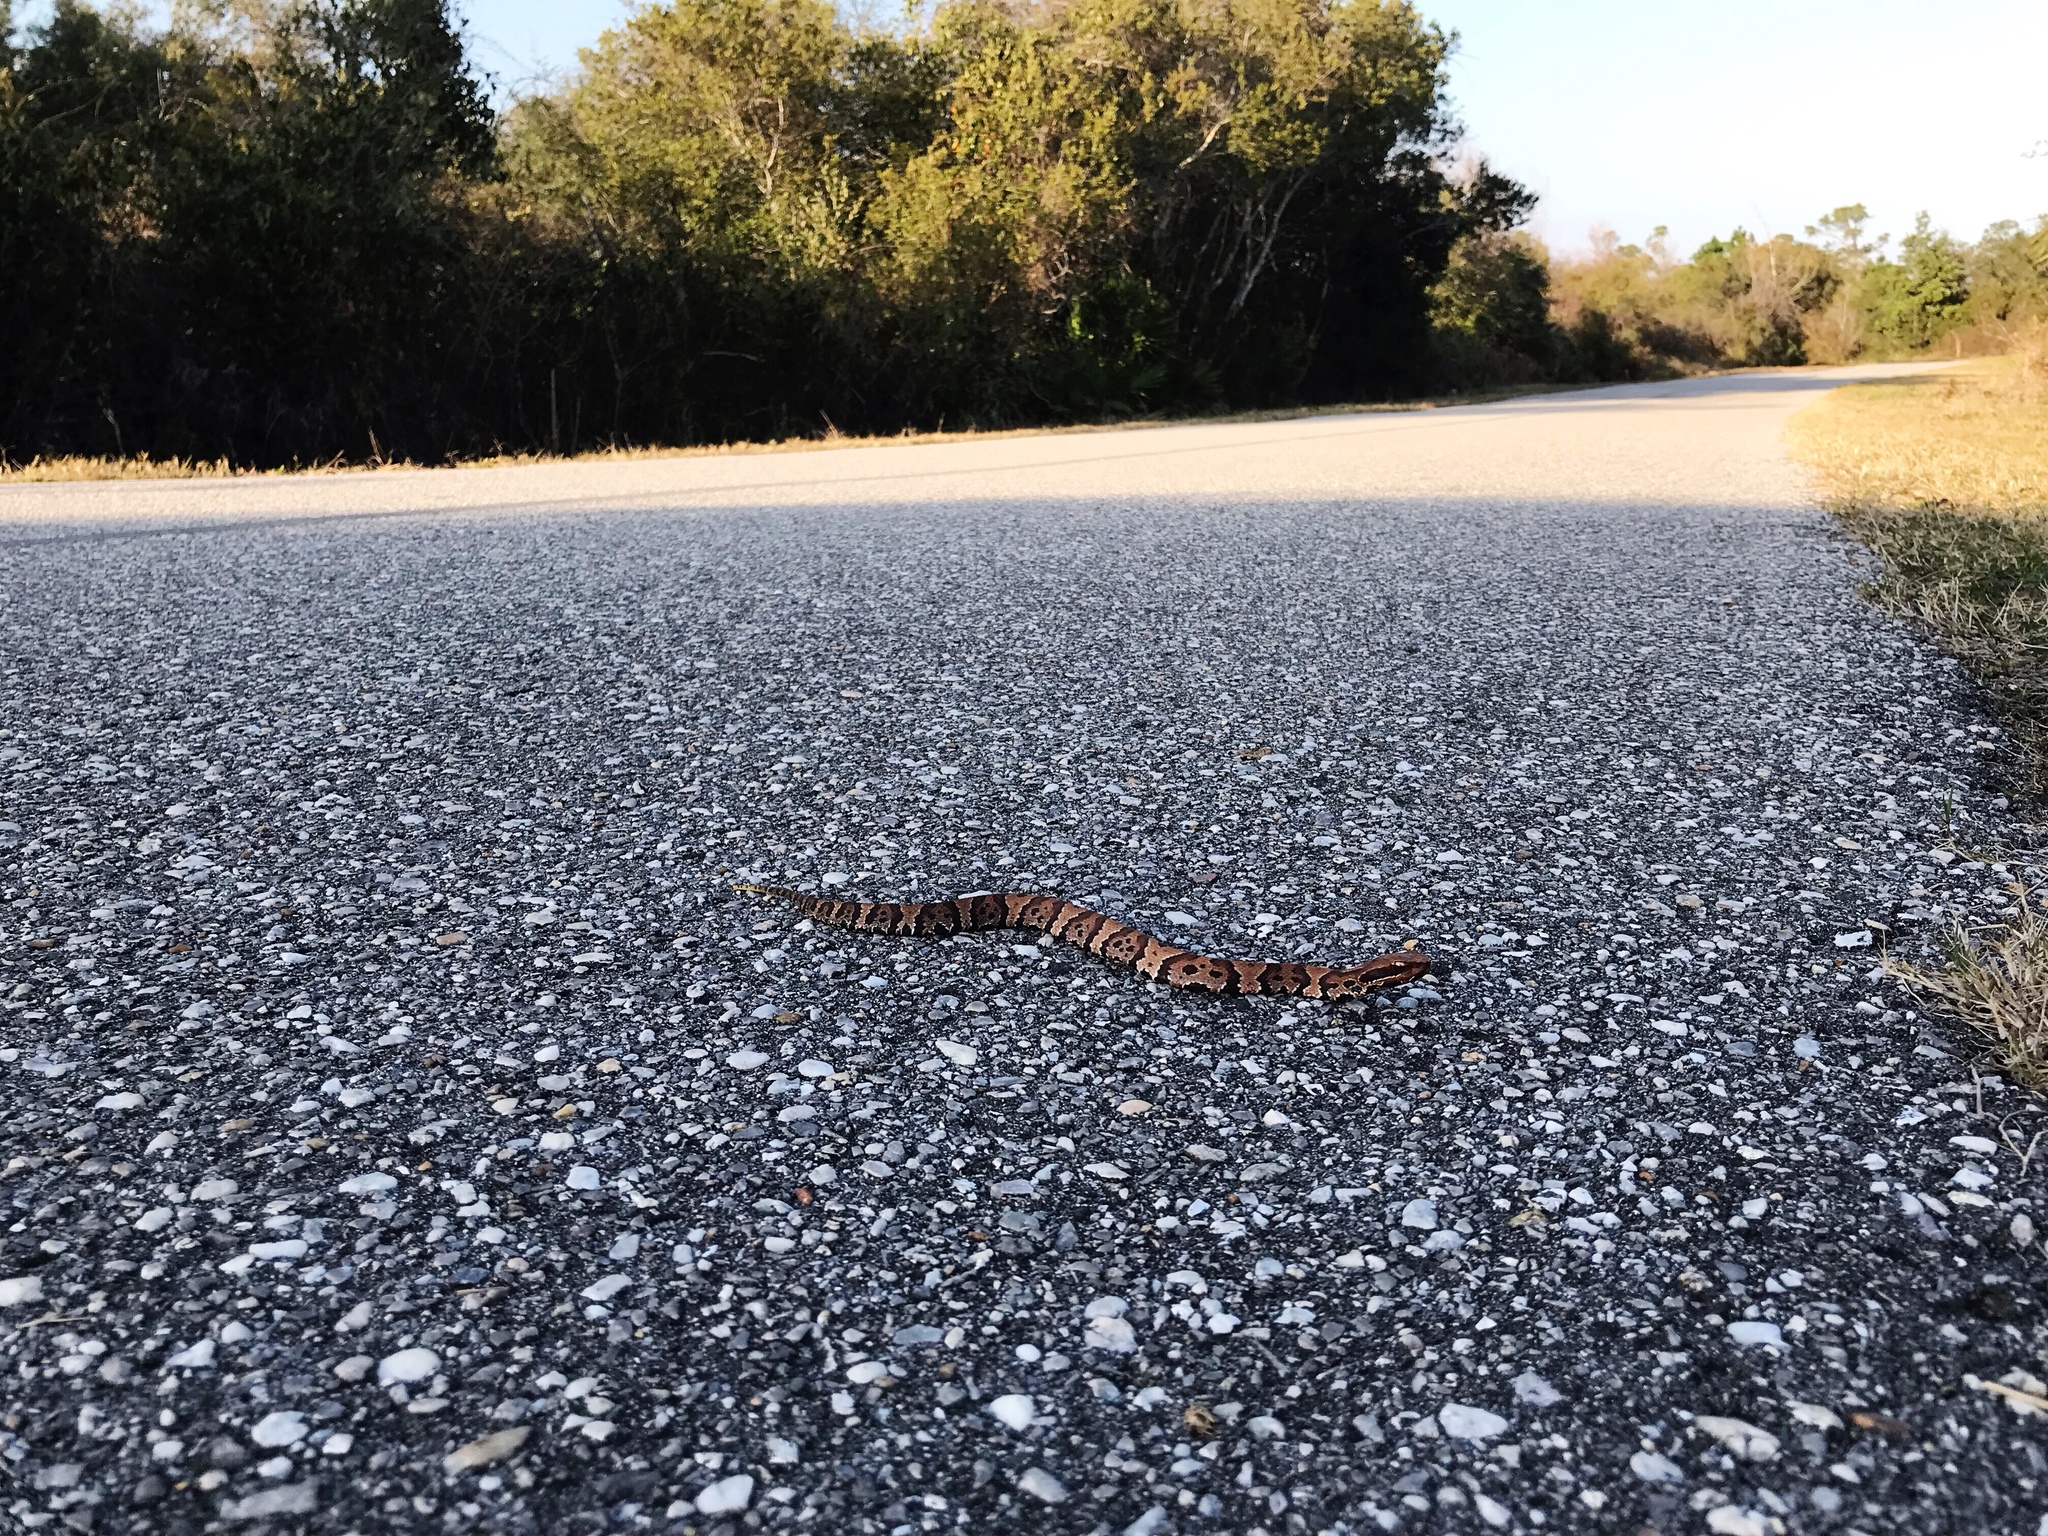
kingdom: Animalia
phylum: Chordata
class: Squamata
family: Viperidae
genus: Agkistrodon
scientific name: Agkistrodon
